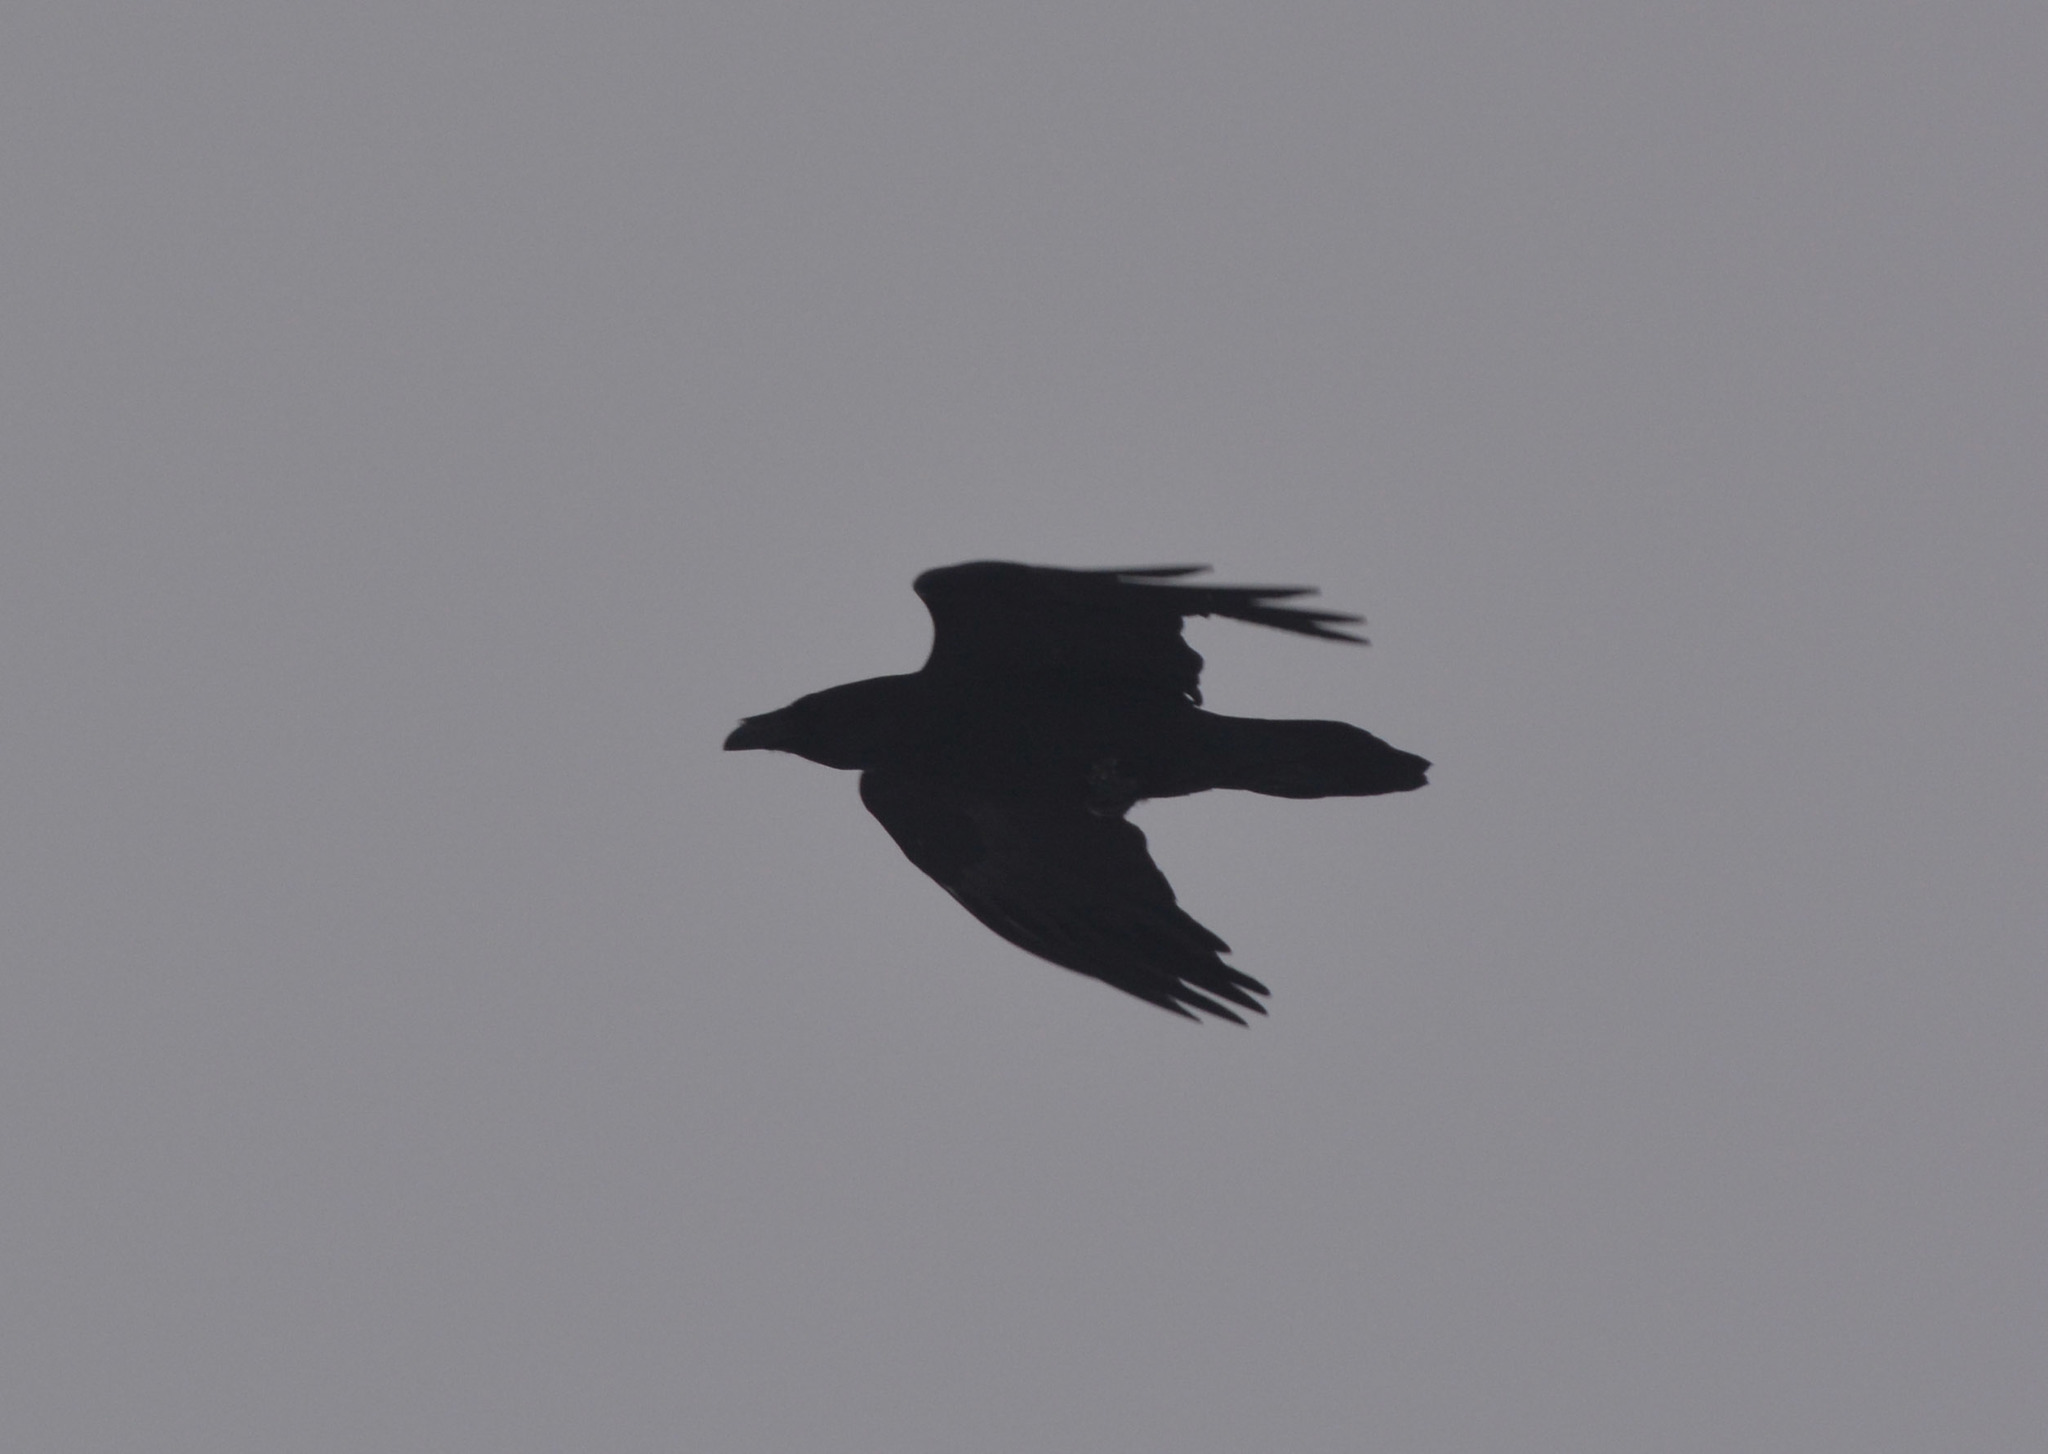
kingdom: Animalia
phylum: Chordata
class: Aves
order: Passeriformes
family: Corvidae
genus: Corvus
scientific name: Corvus corax
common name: Common raven
